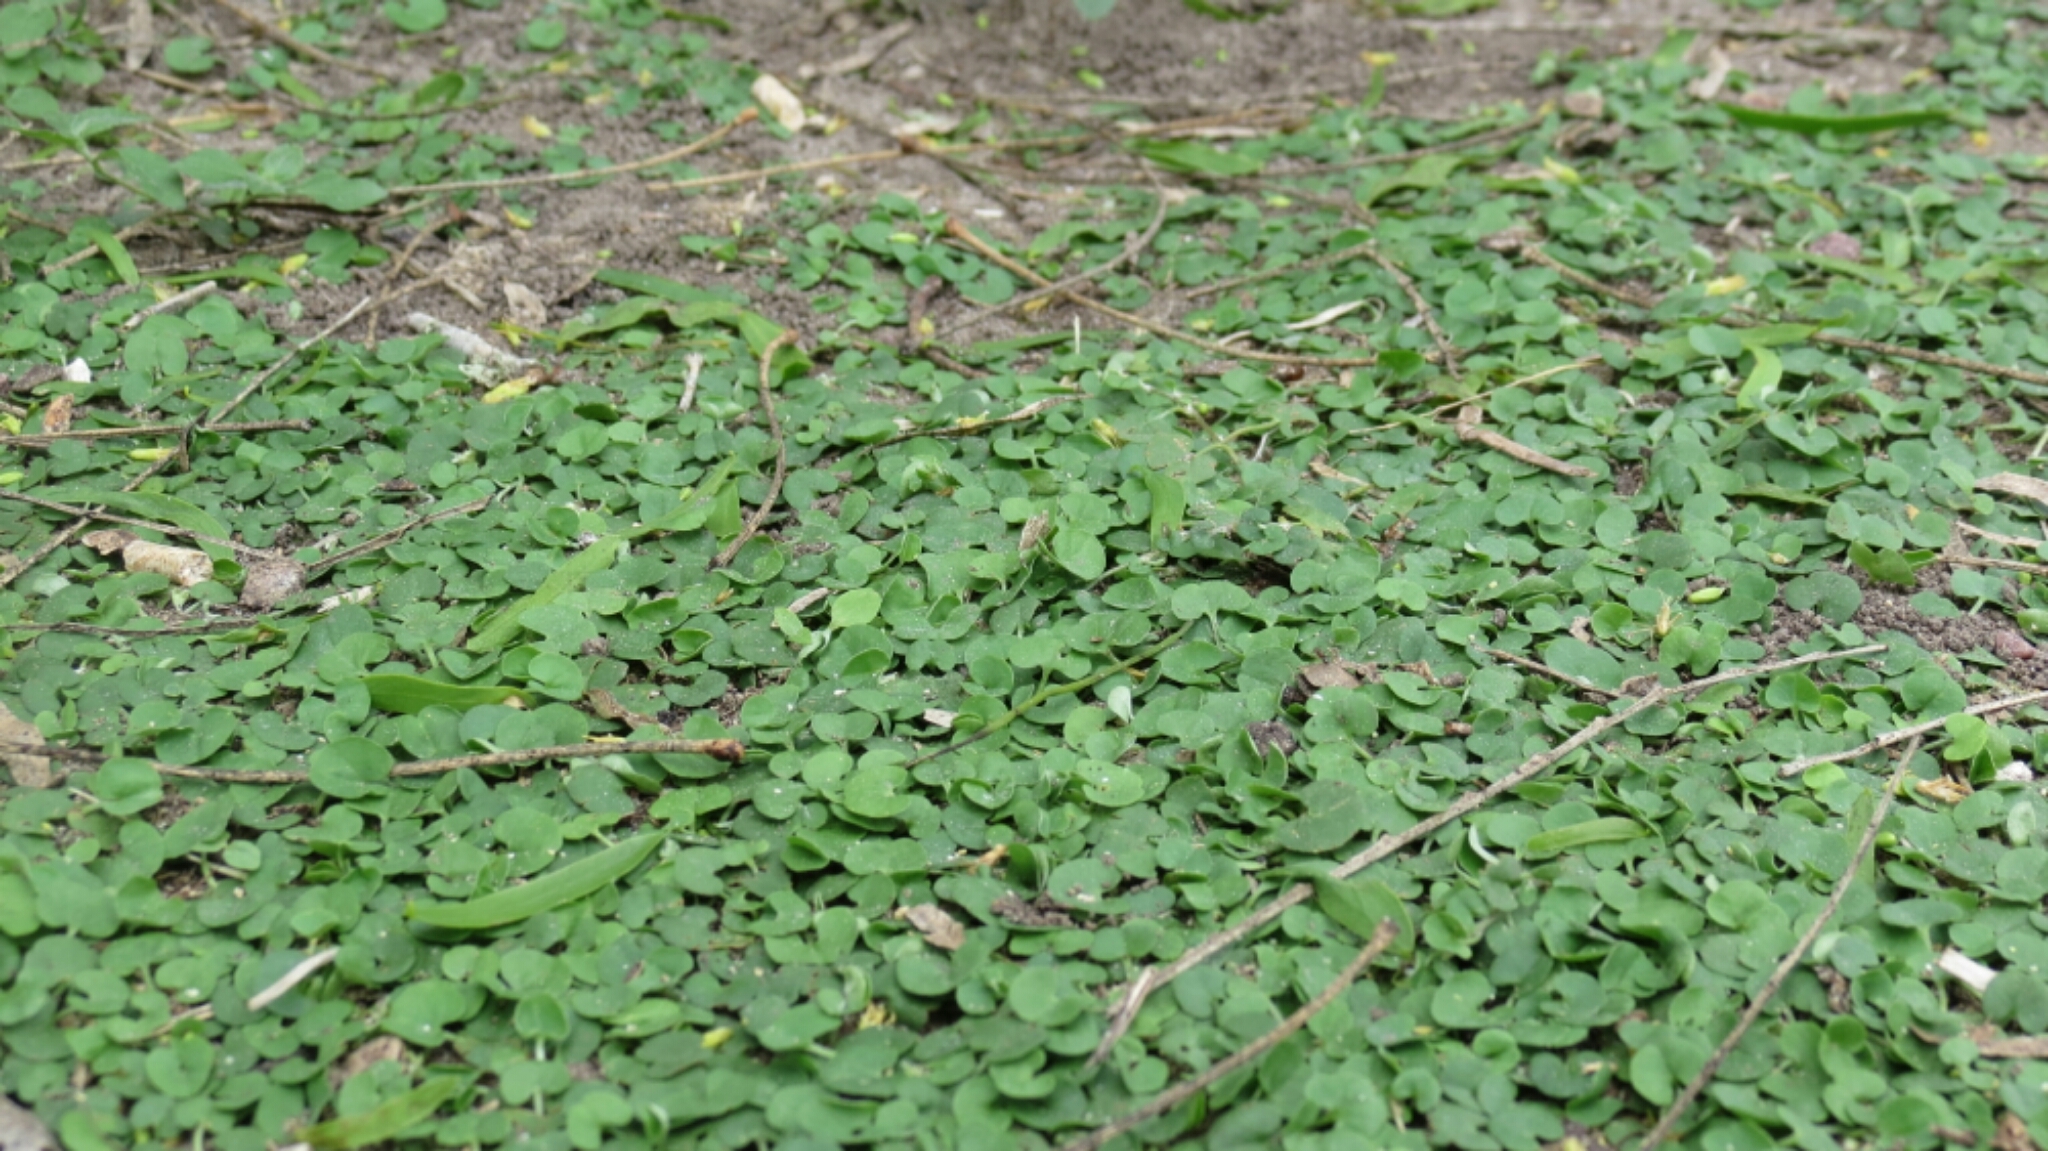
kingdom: Plantae
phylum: Tracheophyta
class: Magnoliopsida
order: Solanales
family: Convolvulaceae
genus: Dichondra
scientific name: Dichondra carolinensis
